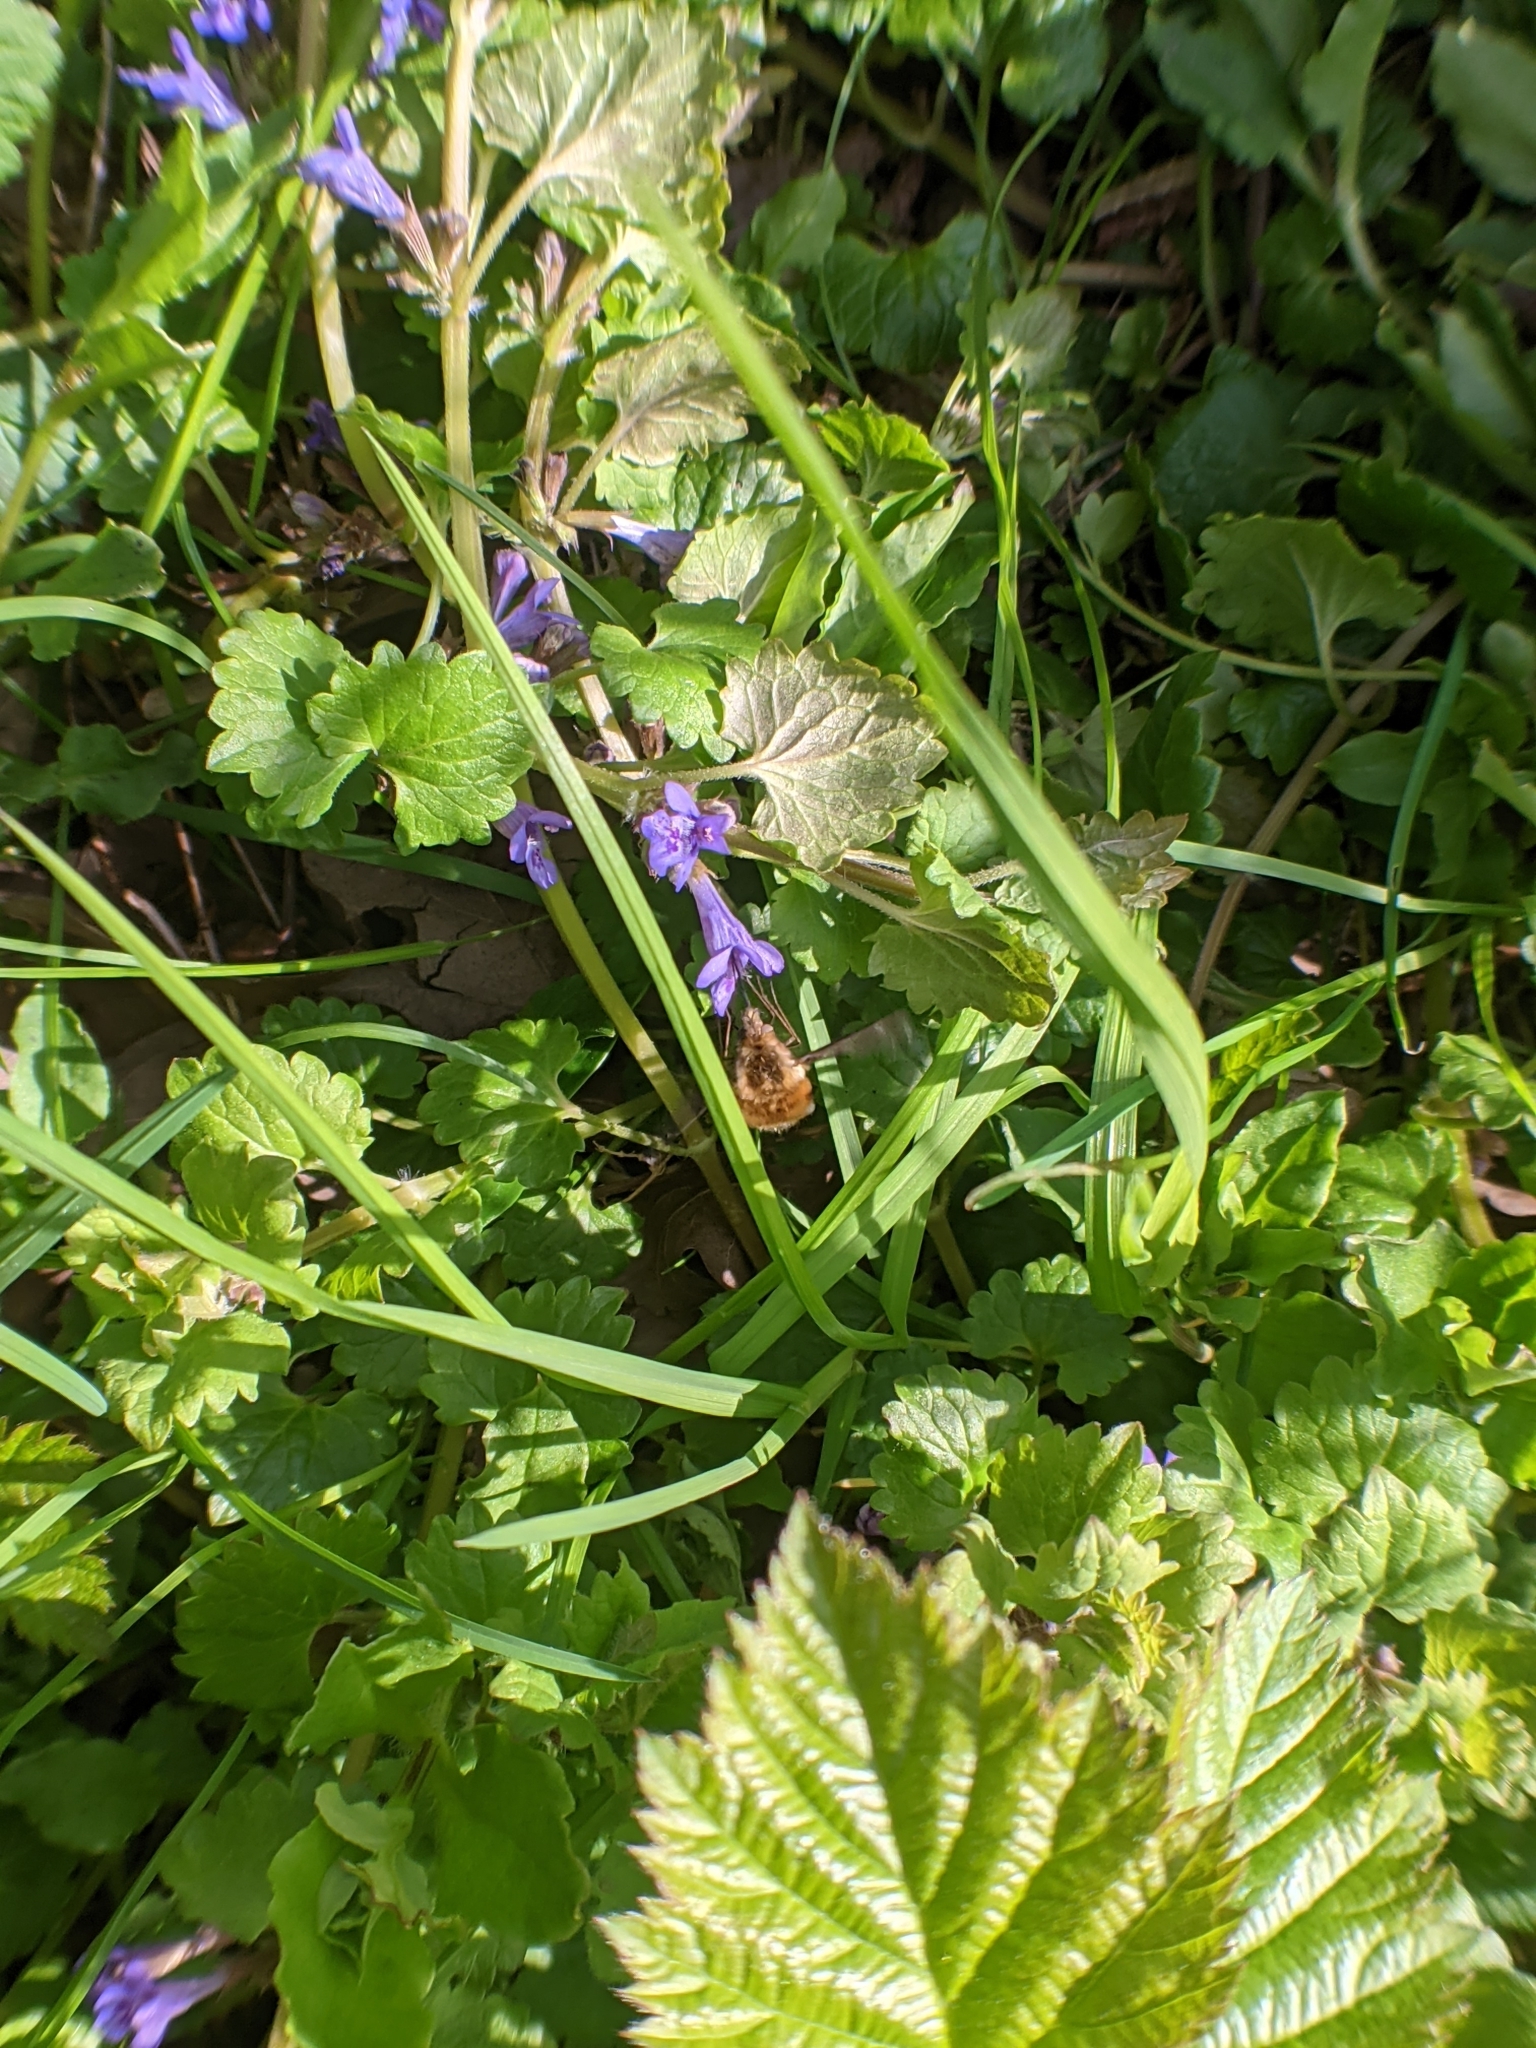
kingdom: Animalia
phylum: Arthropoda
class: Insecta
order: Diptera
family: Bombyliidae
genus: Bombylius
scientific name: Bombylius major
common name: Bee fly
